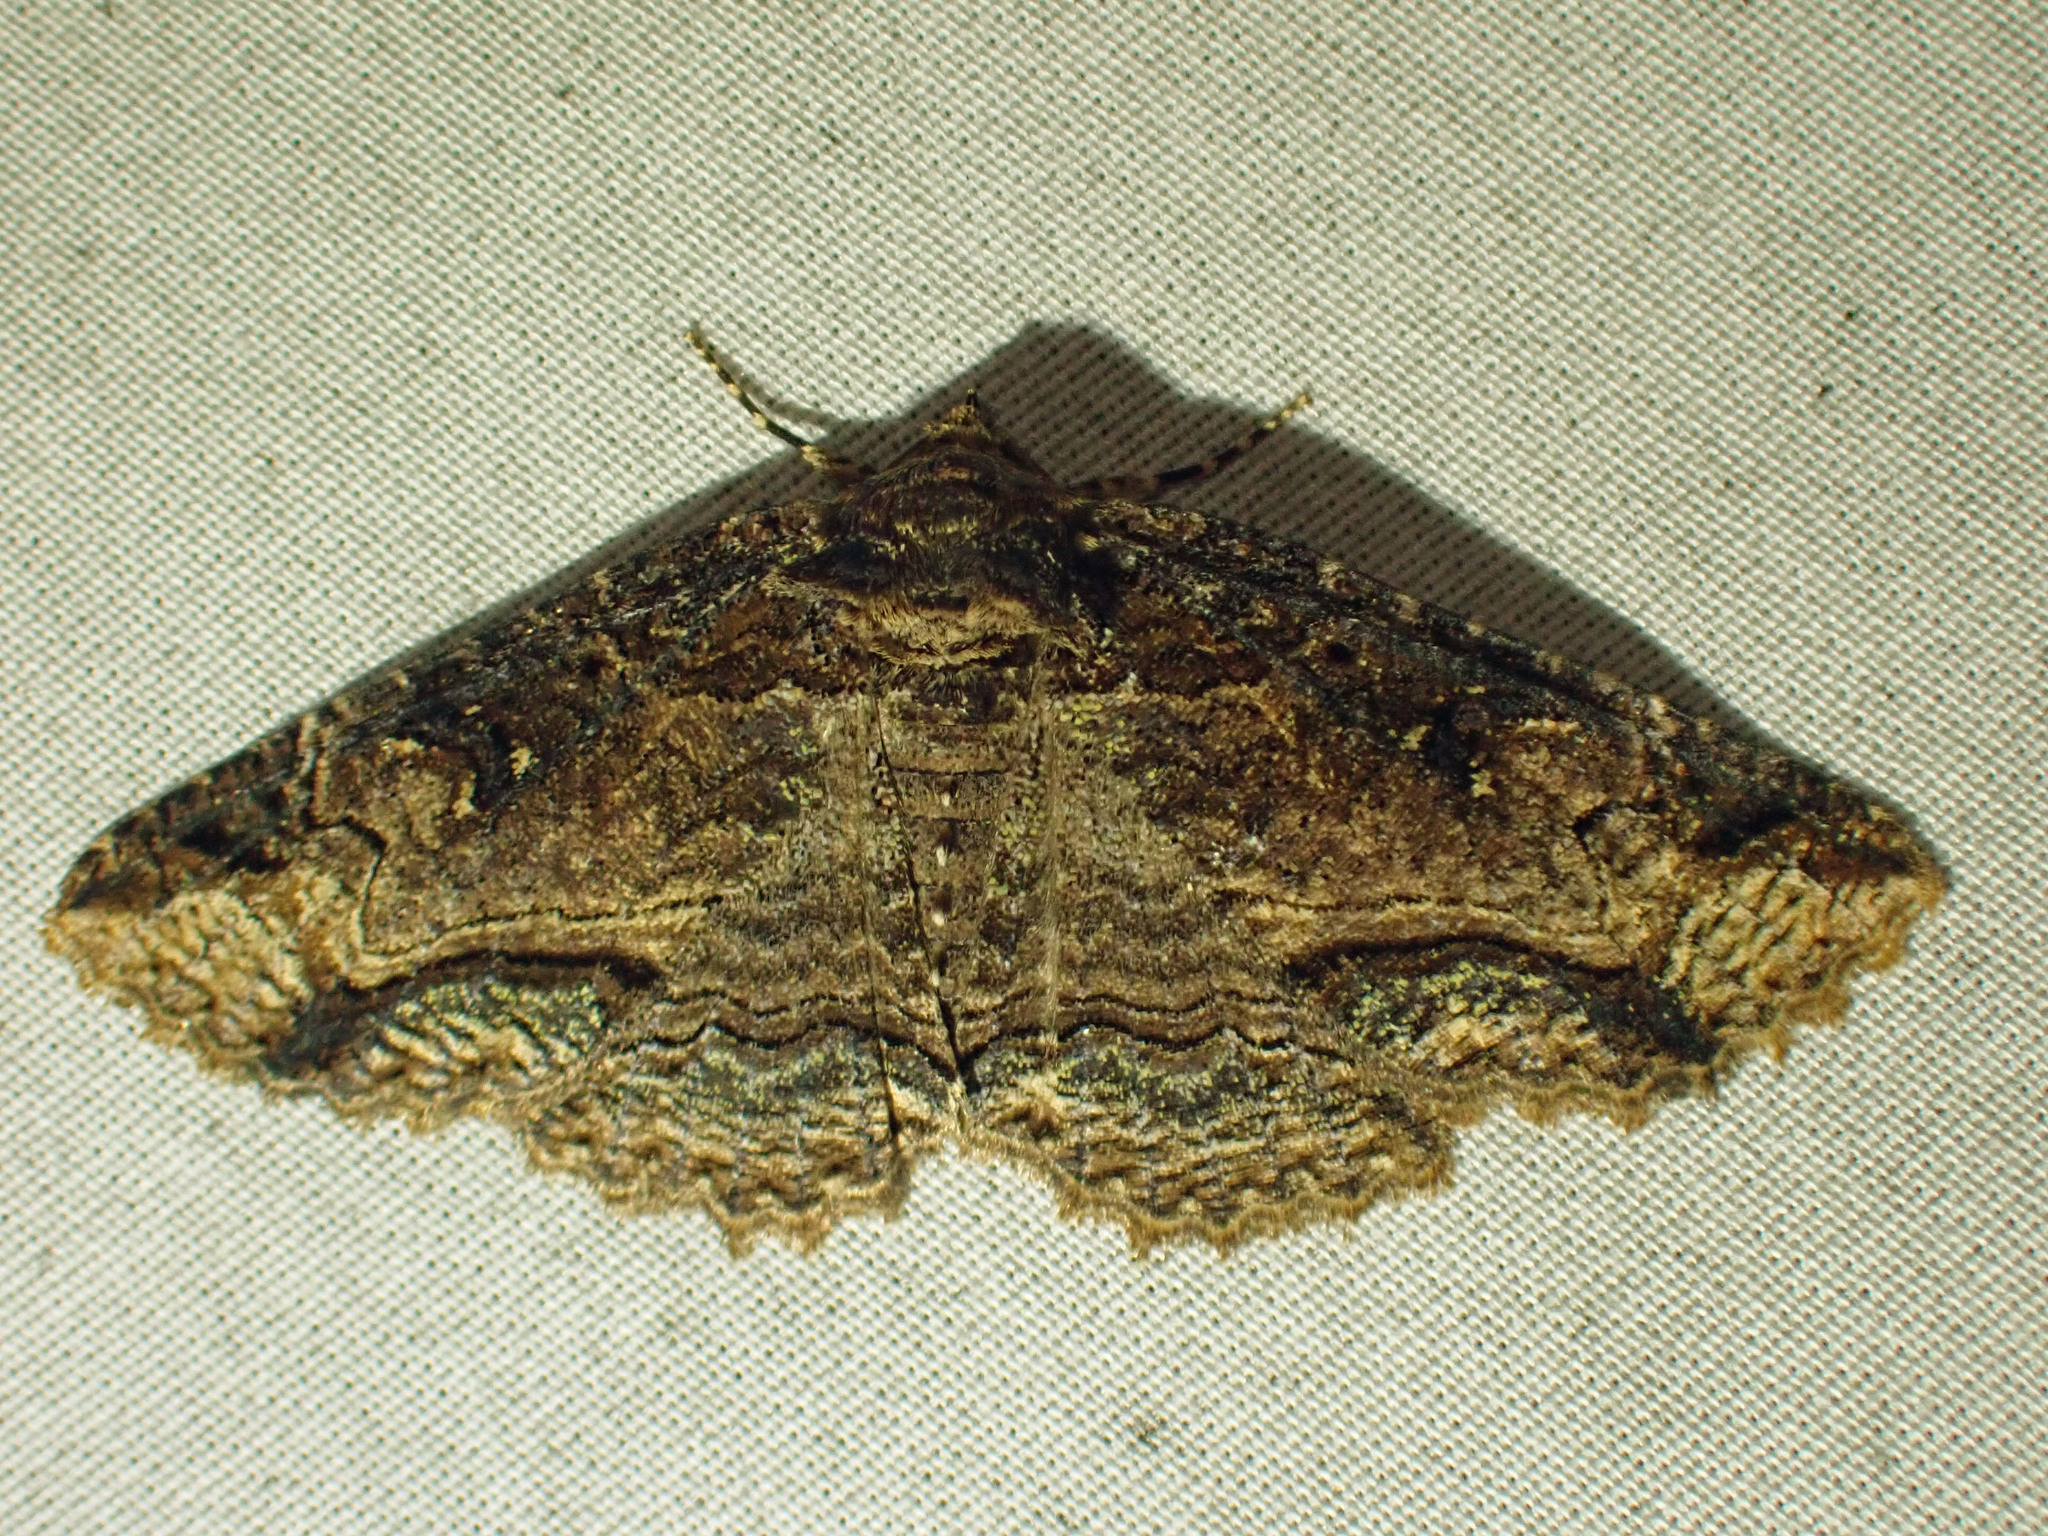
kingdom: Animalia
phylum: Arthropoda
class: Insecta
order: Lepidoptera
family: Erebidae
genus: Zale
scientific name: Zale minerea
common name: Colorful zale moth
